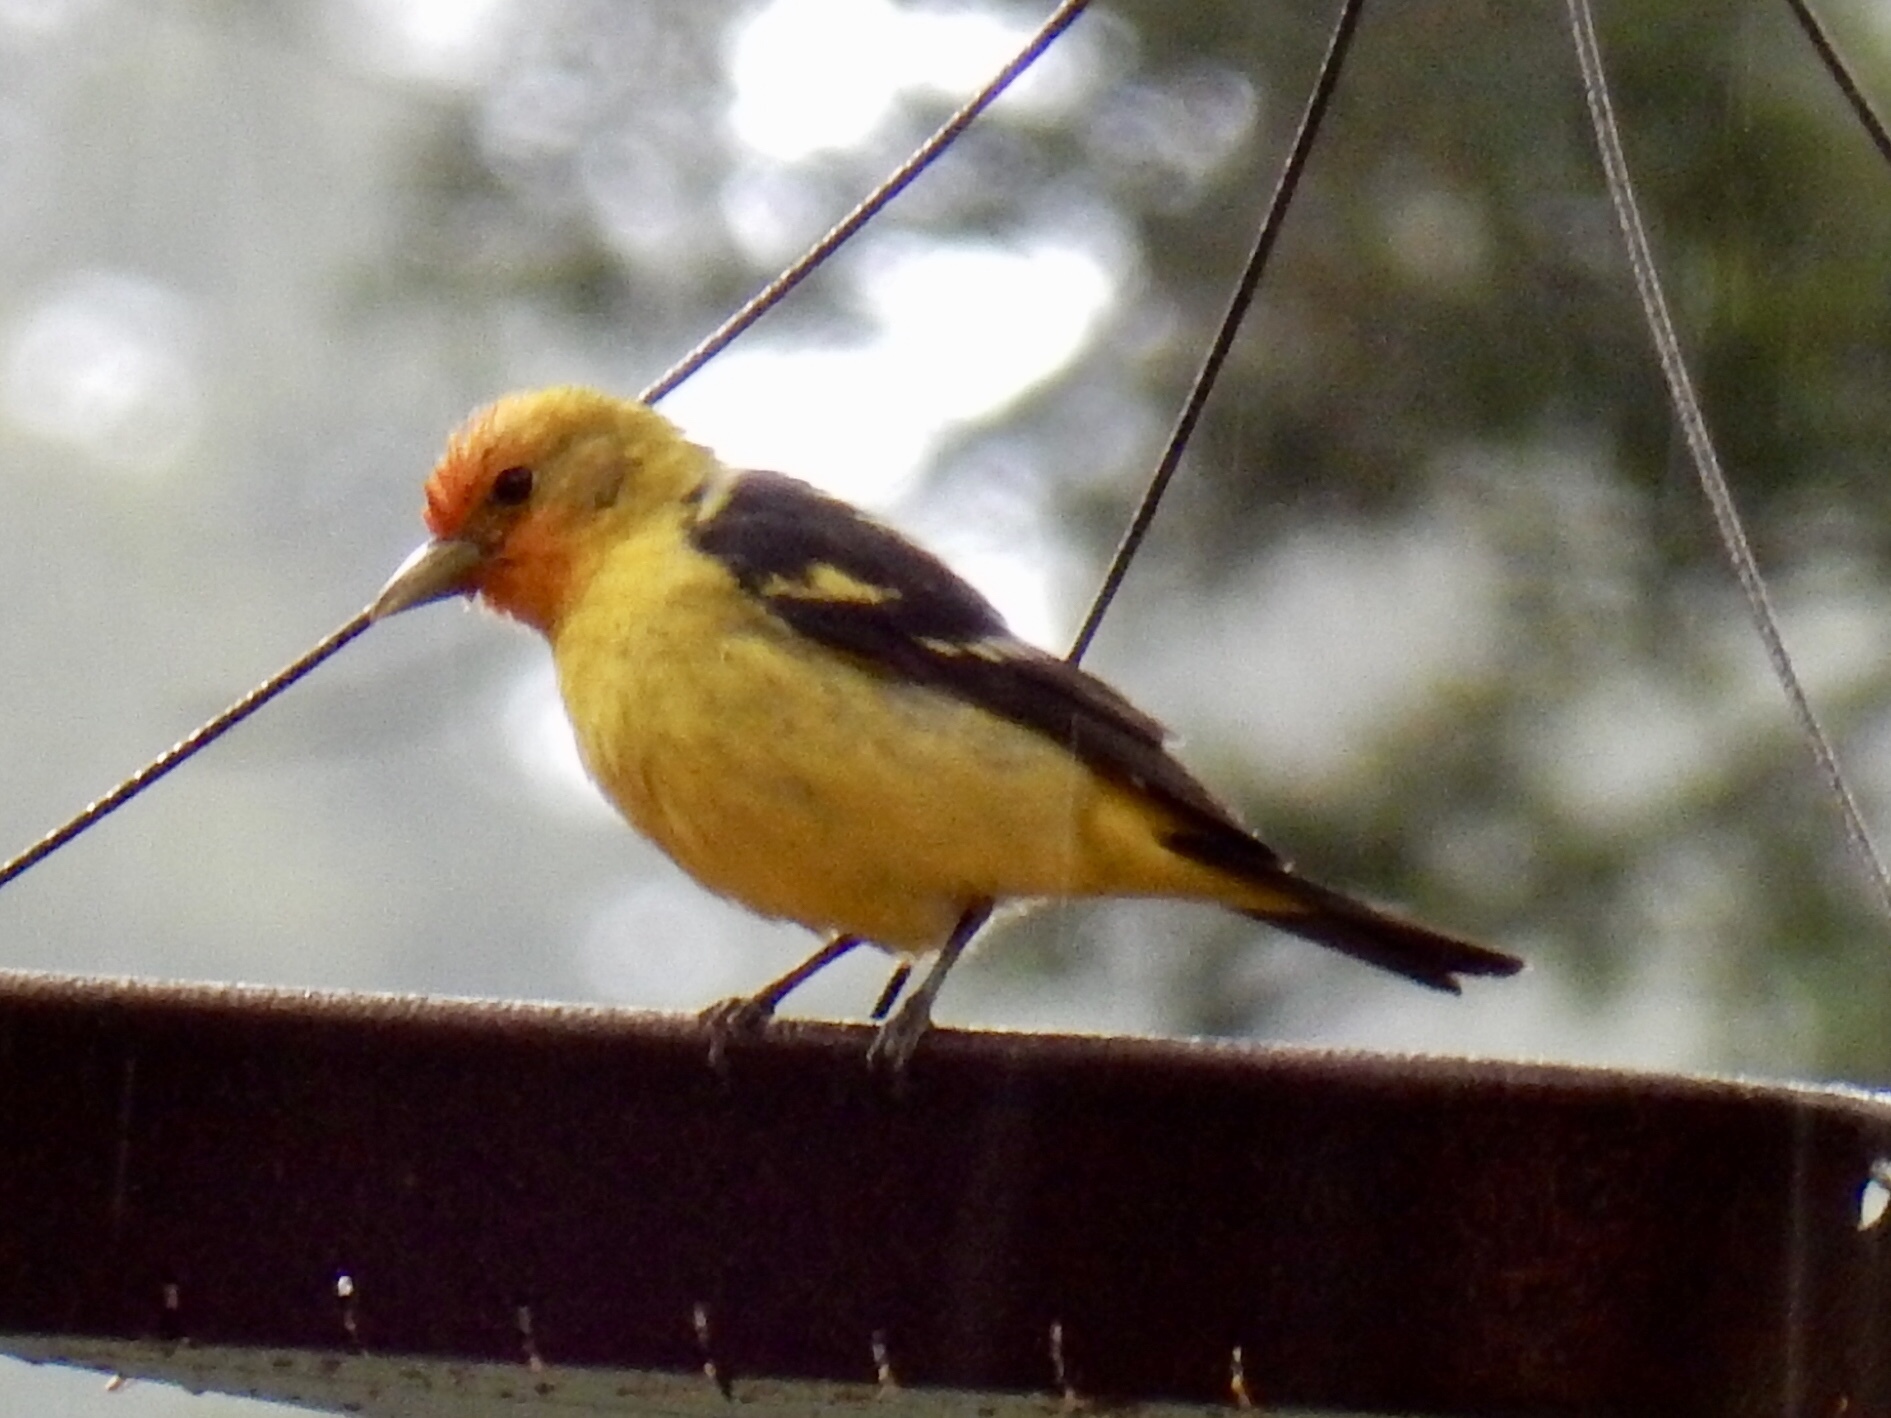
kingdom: Animalia
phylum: Chordata
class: Aves
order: Passeriformes
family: Cardinalidae
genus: Piranga
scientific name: Piranga ludoviciana
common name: Western tanager
